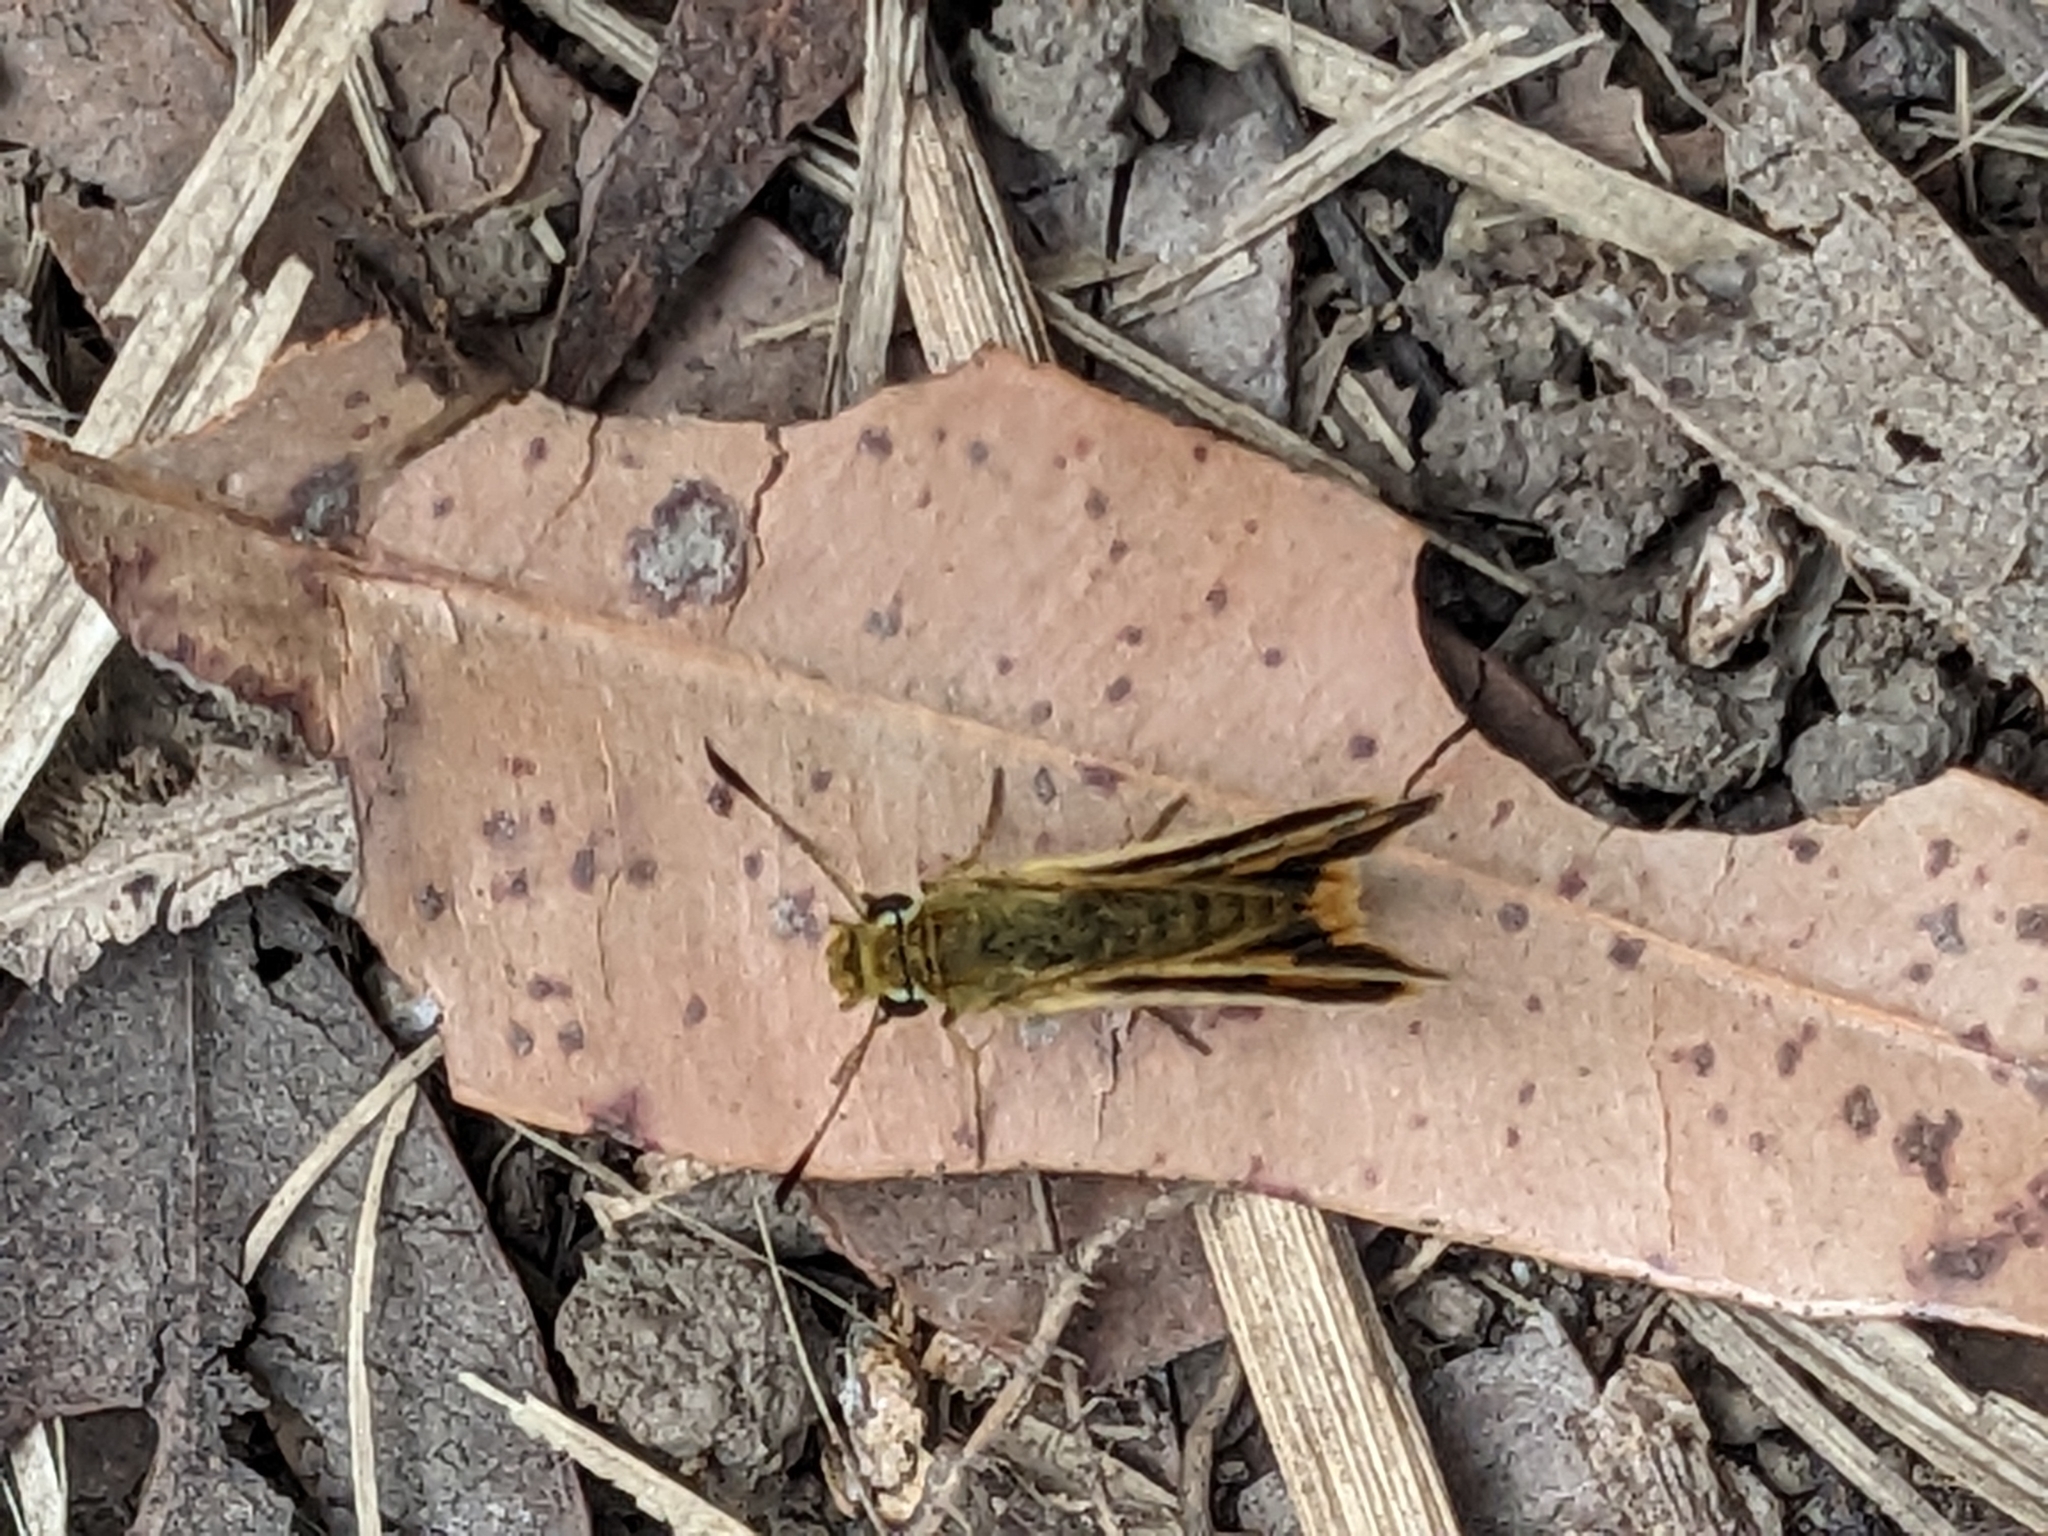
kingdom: Animalia
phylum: Arthropoda
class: Insecta
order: Lepidoptera
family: Hesperiidae
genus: Ocybadistes
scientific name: Ocybadistes flavovittata
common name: Narrow-brand grass-dart
